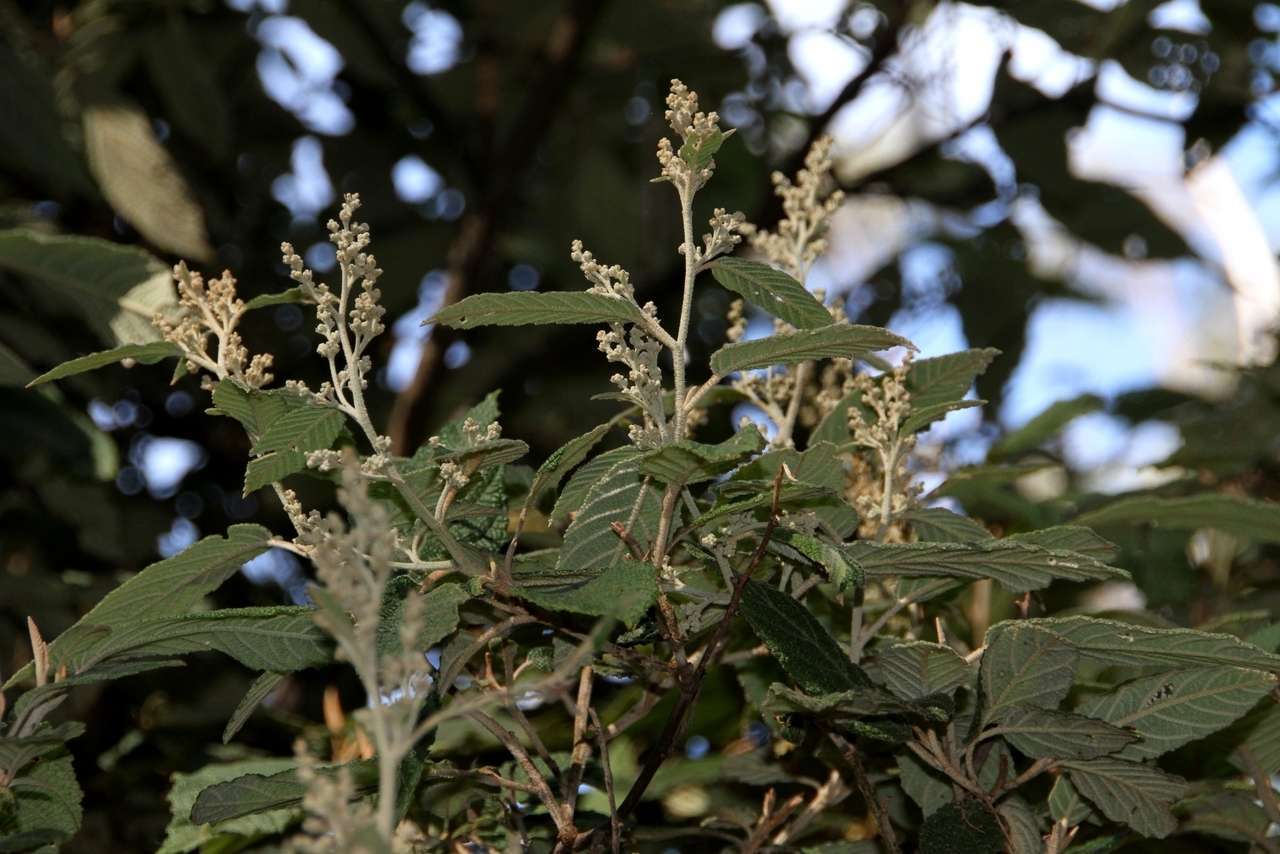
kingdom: Plantae
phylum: Tracheophyta
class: Magnoliopsida
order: Rosales
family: Rhamnaceae
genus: Pomaderris
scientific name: Pomaderris aspera
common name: Hazel pomaderris
